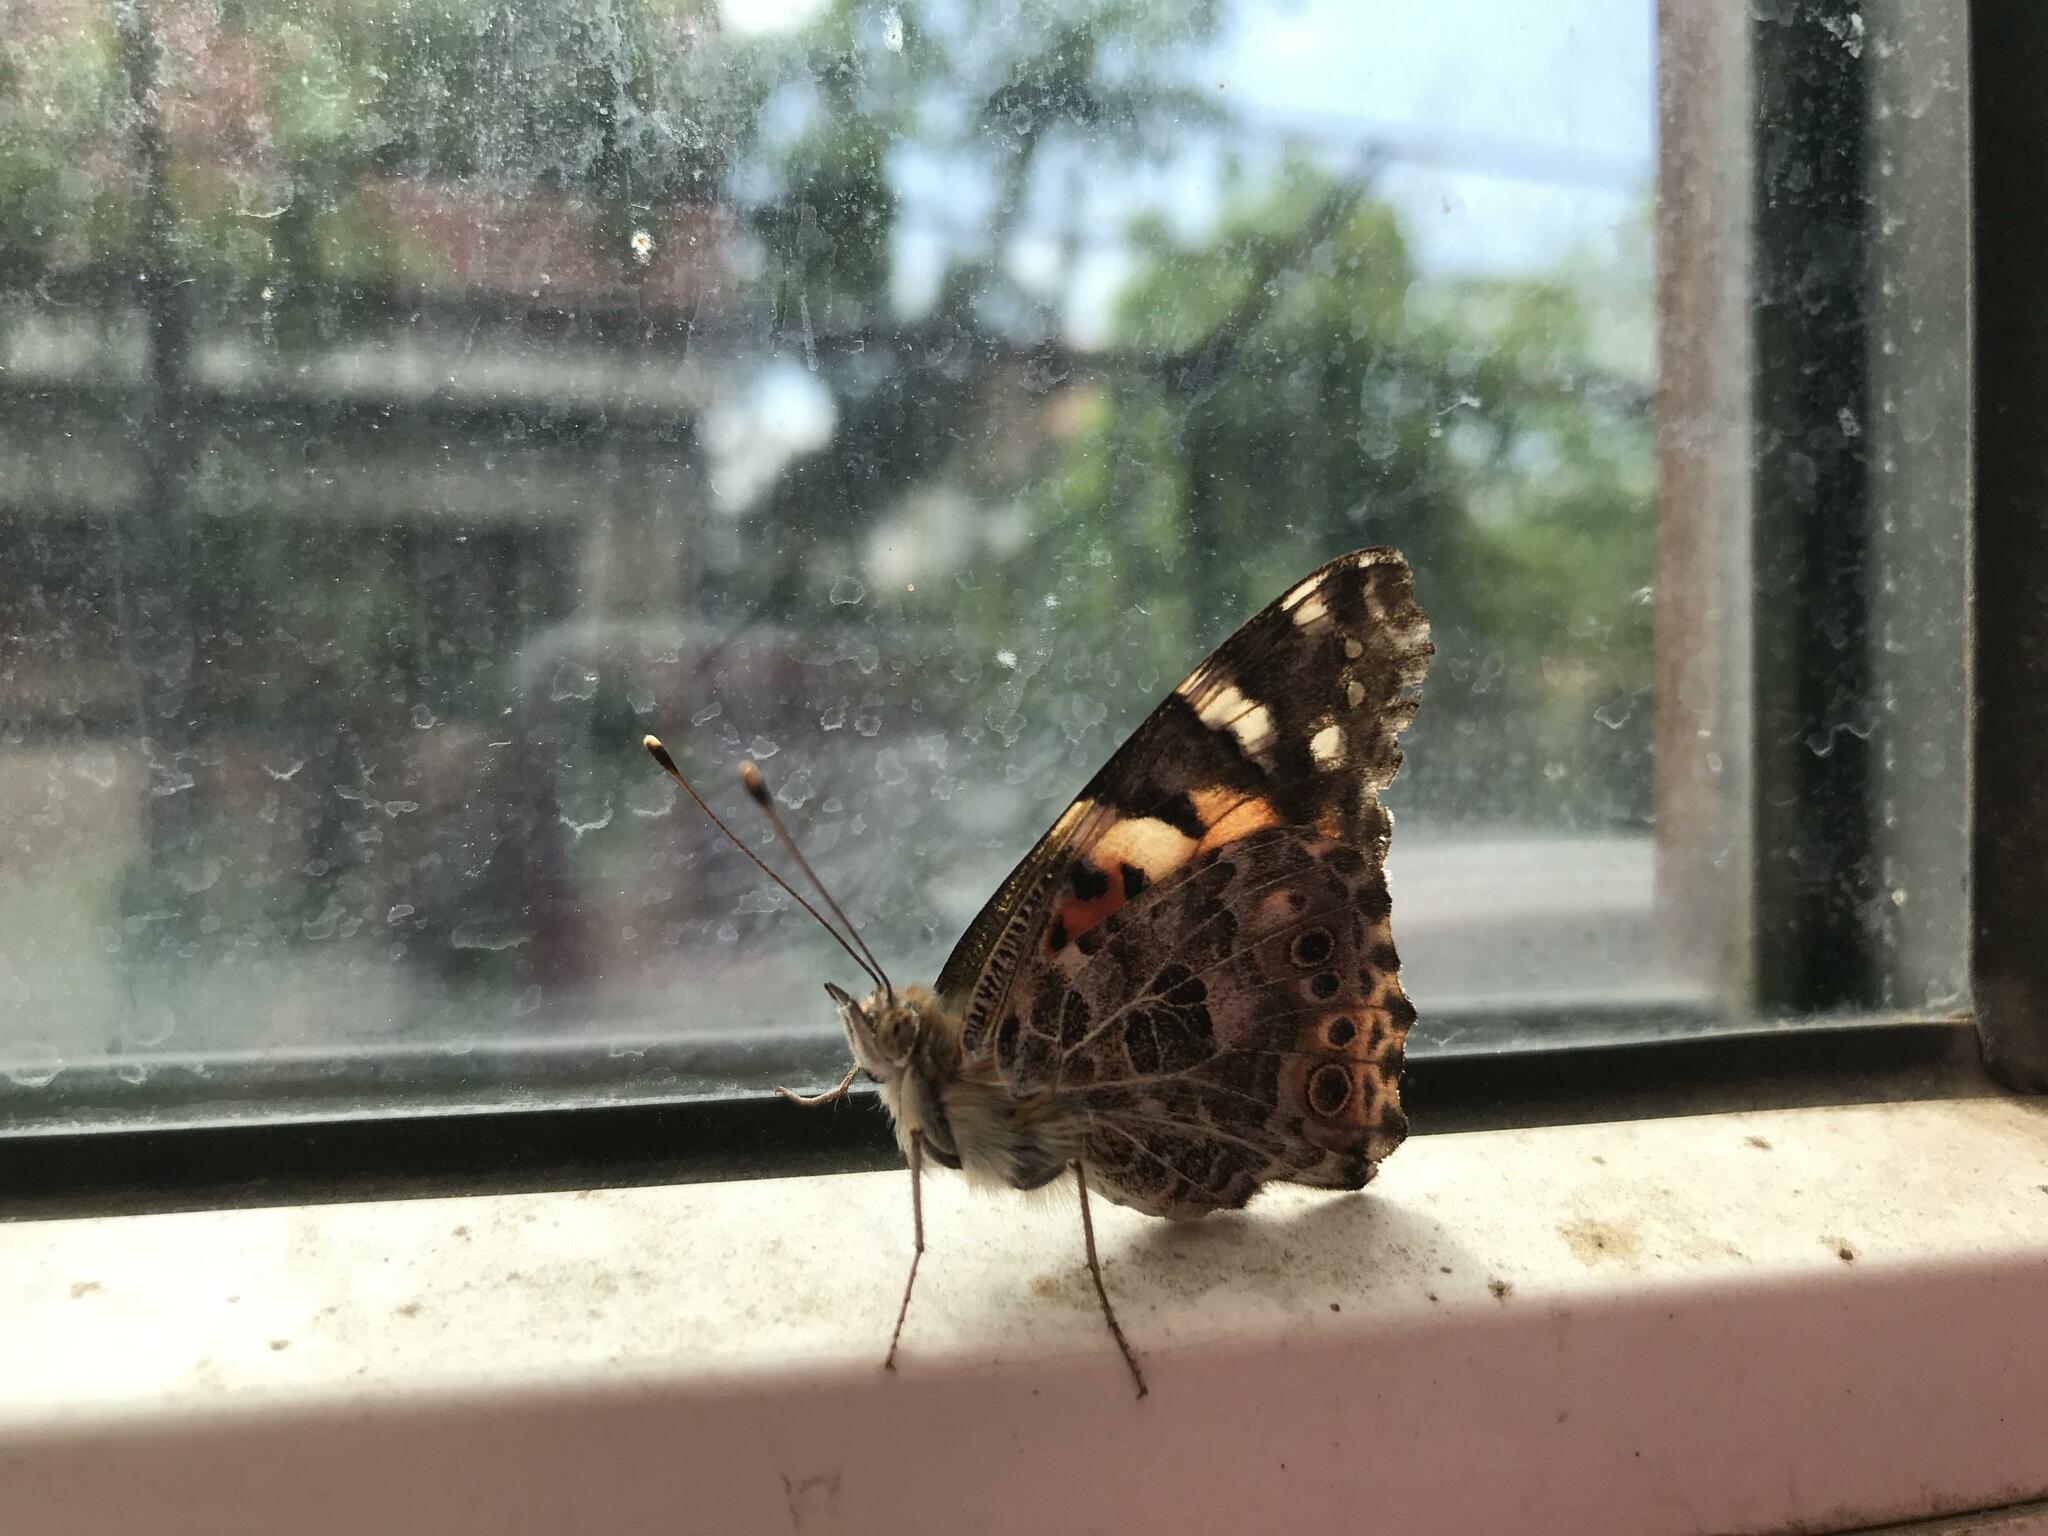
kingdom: Animalia
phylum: Arthropoda
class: Insecta
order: Lepidoptera
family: Nymphalidae
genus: Vanessa
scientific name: Vanessa cardui
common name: Painted lady
